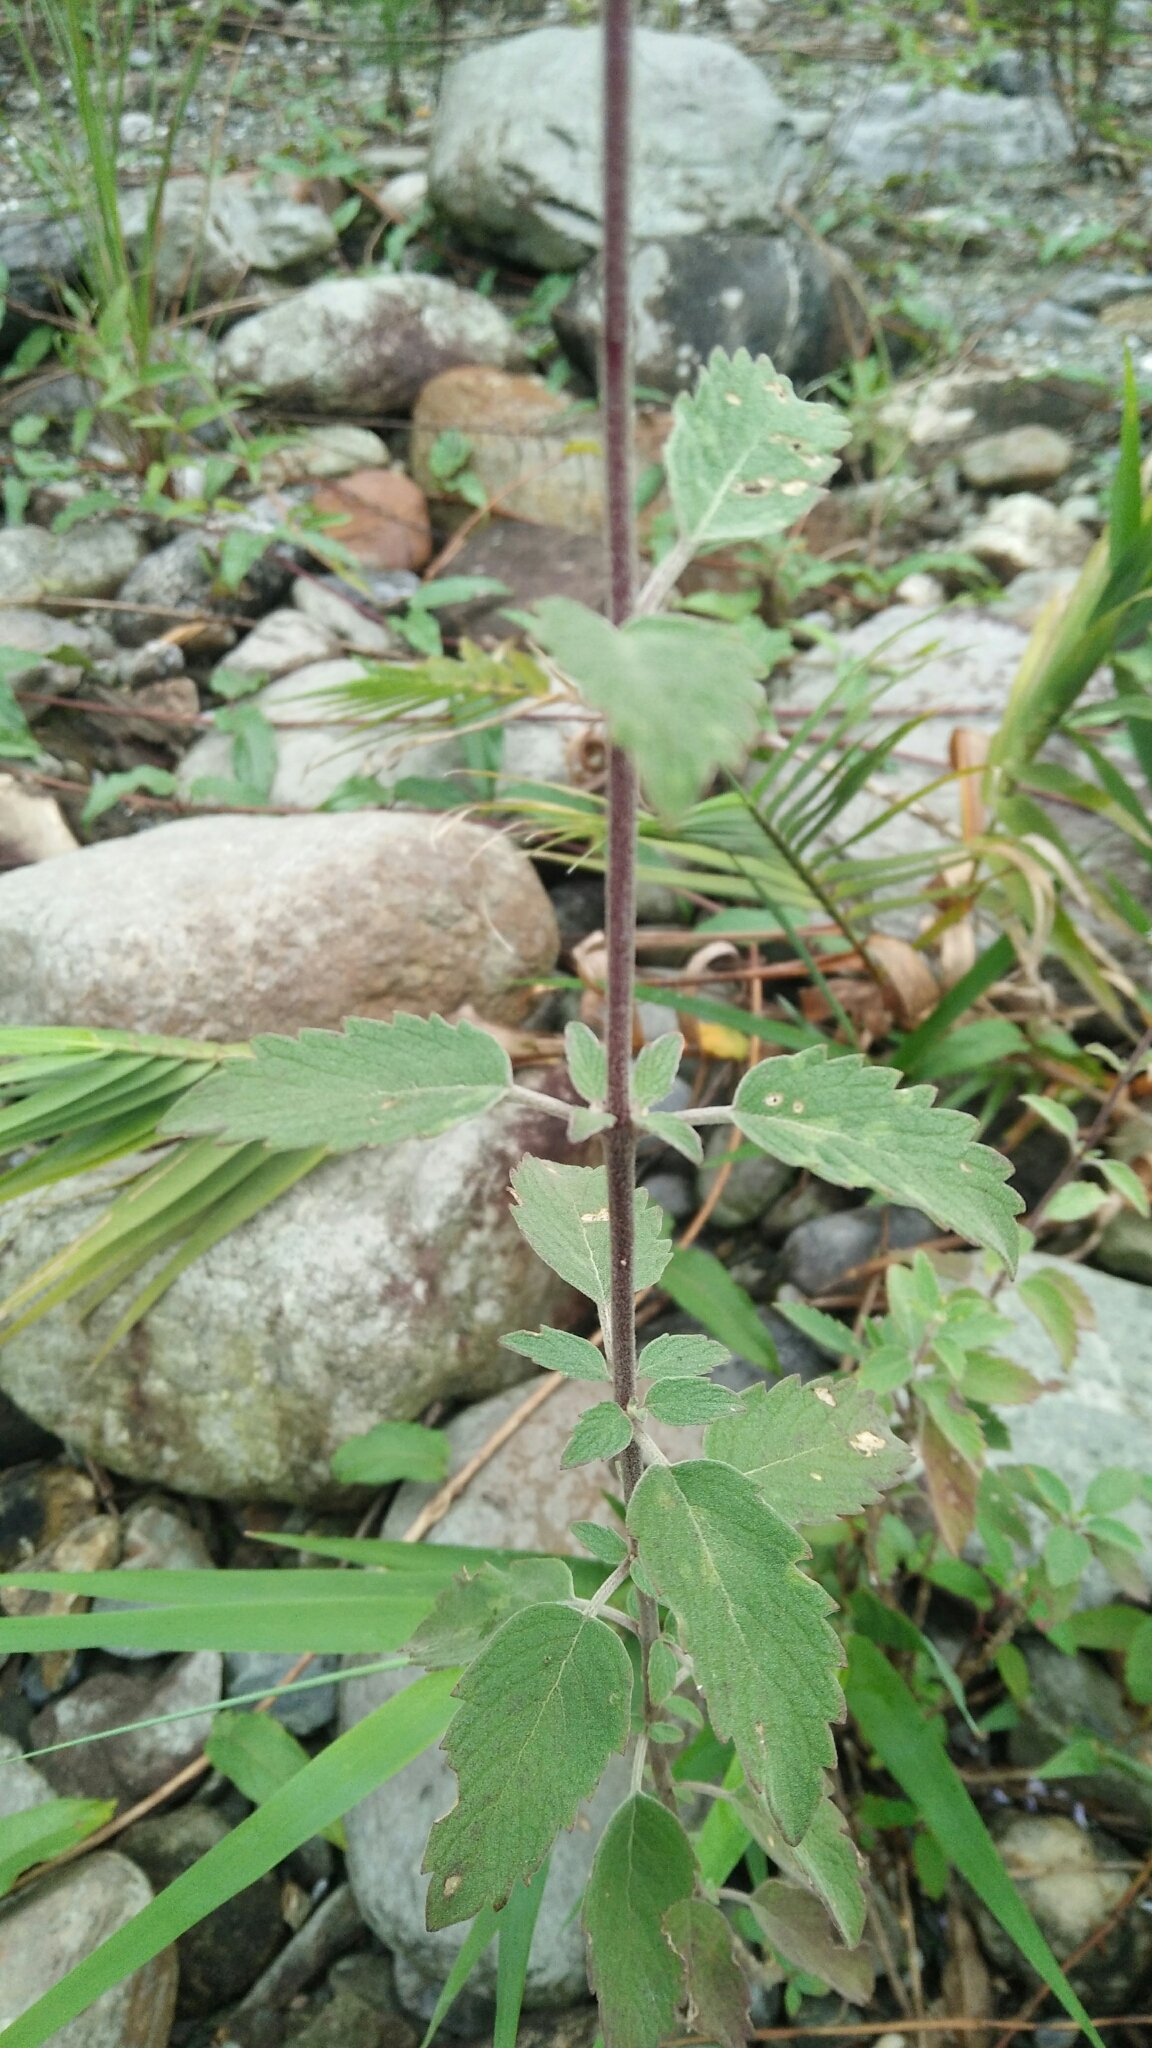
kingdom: Plantae
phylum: Tracheophyta
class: Magnoliopsida
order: Lamiales
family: Lamiaceae
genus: Caryopteris
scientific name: Caryopteris incana
